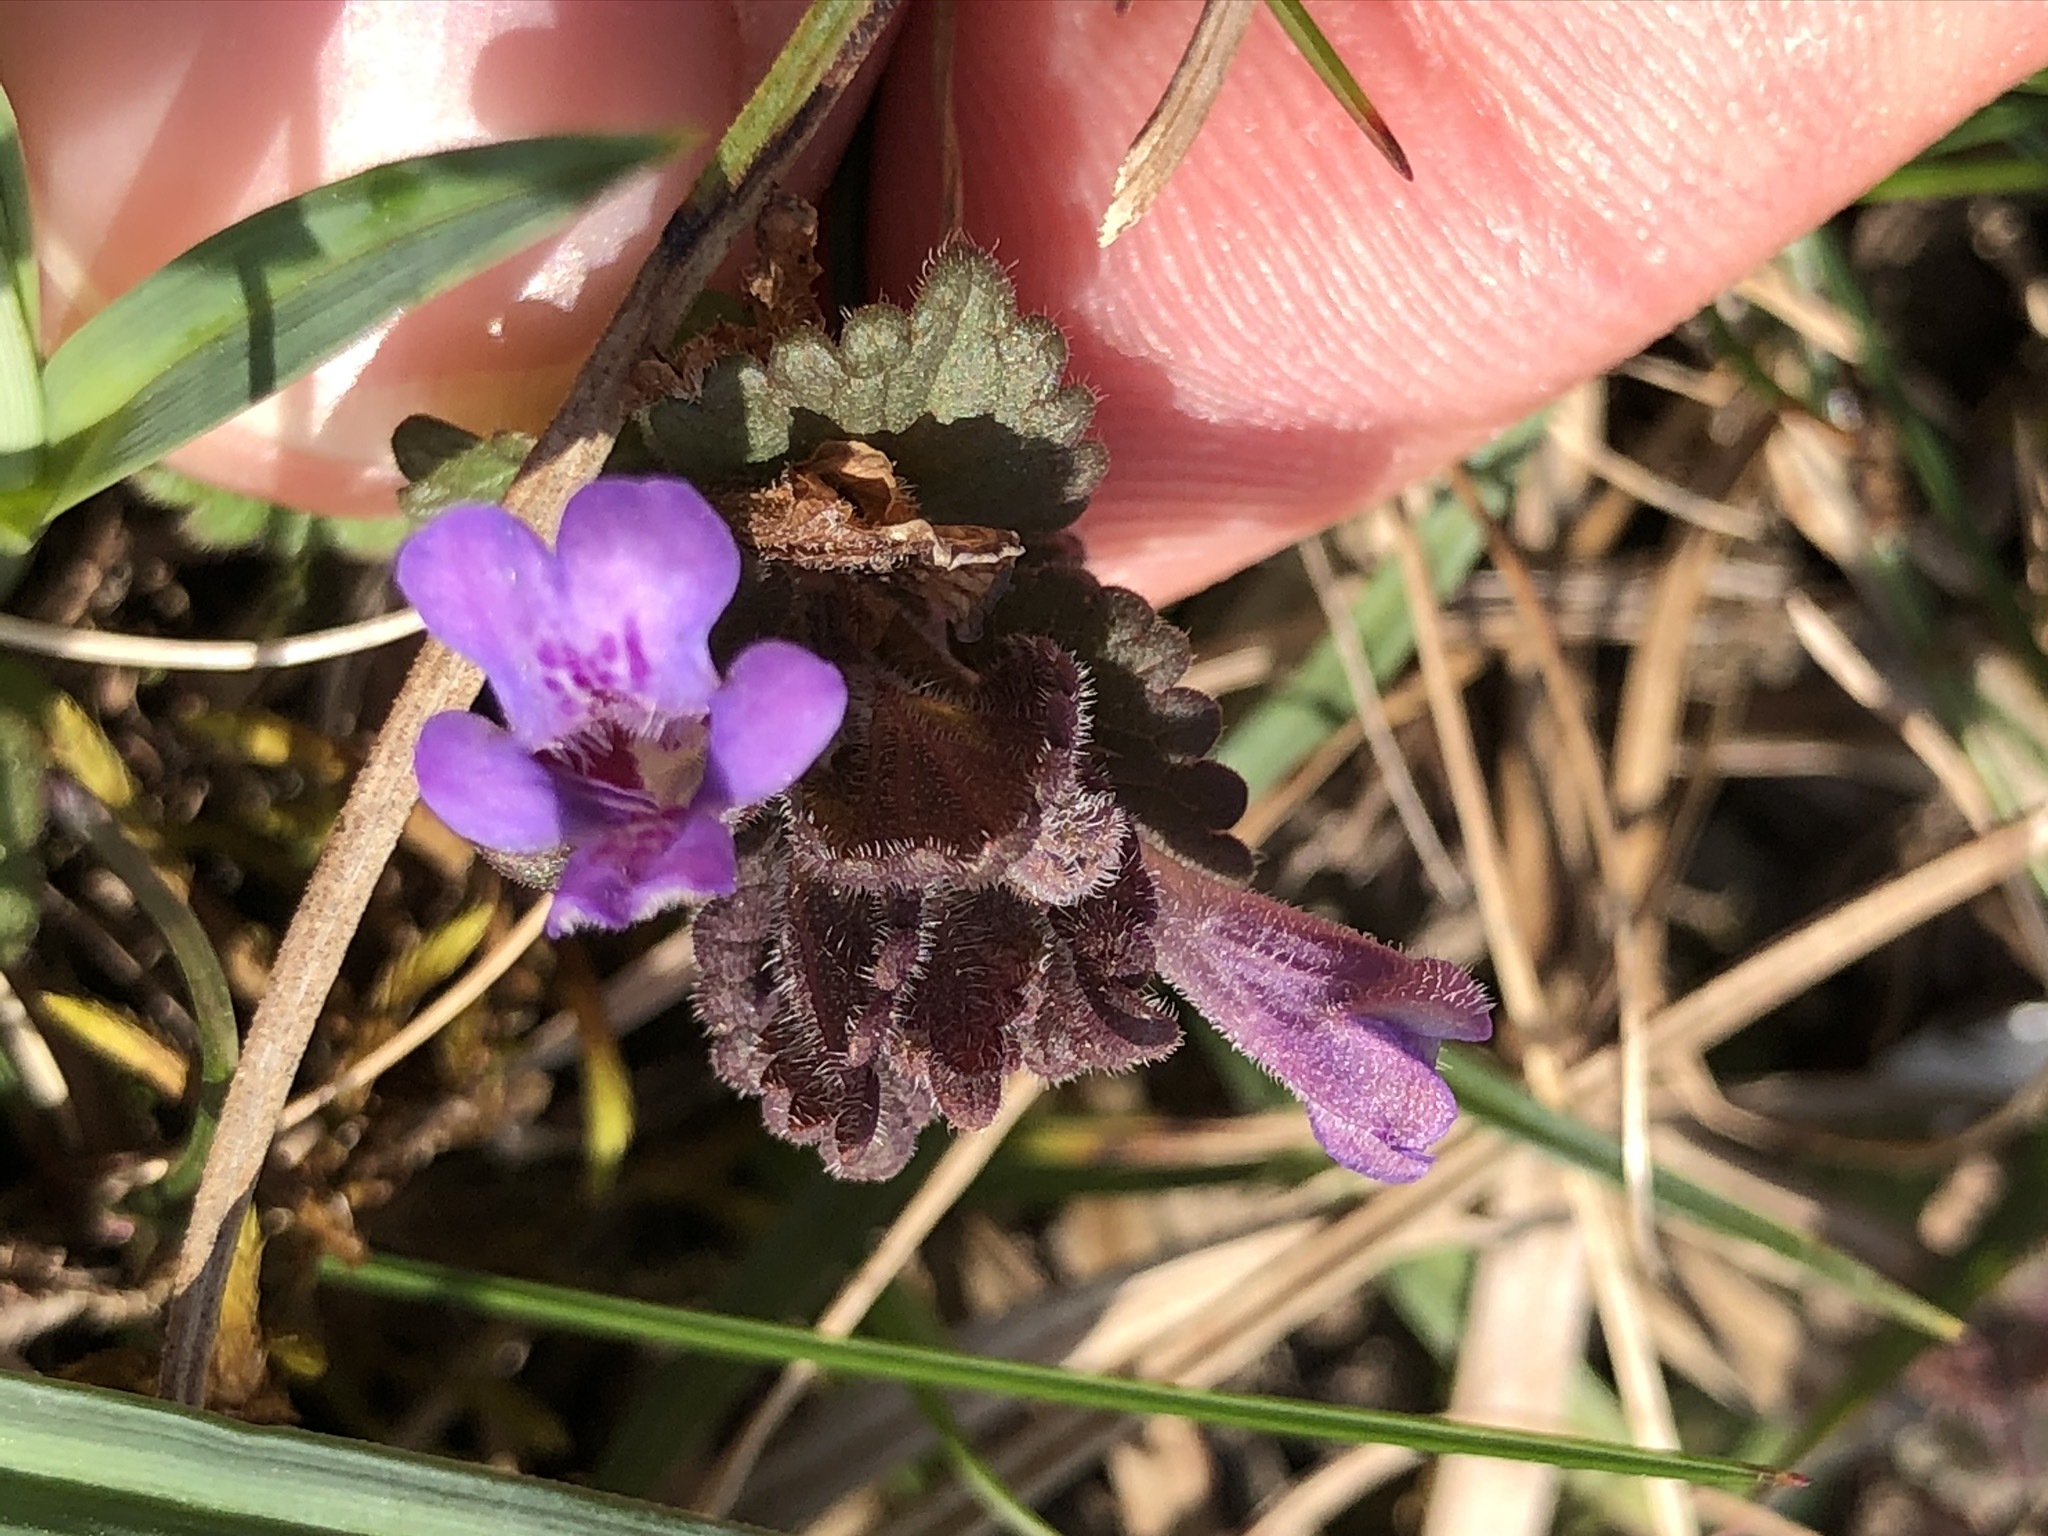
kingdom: Plantae
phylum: Tracheophyta
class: Magnoliopsida
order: Lamiales
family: Lamiaceae
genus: Glechoma
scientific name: Glechoma hederacea
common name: Ground ivy
